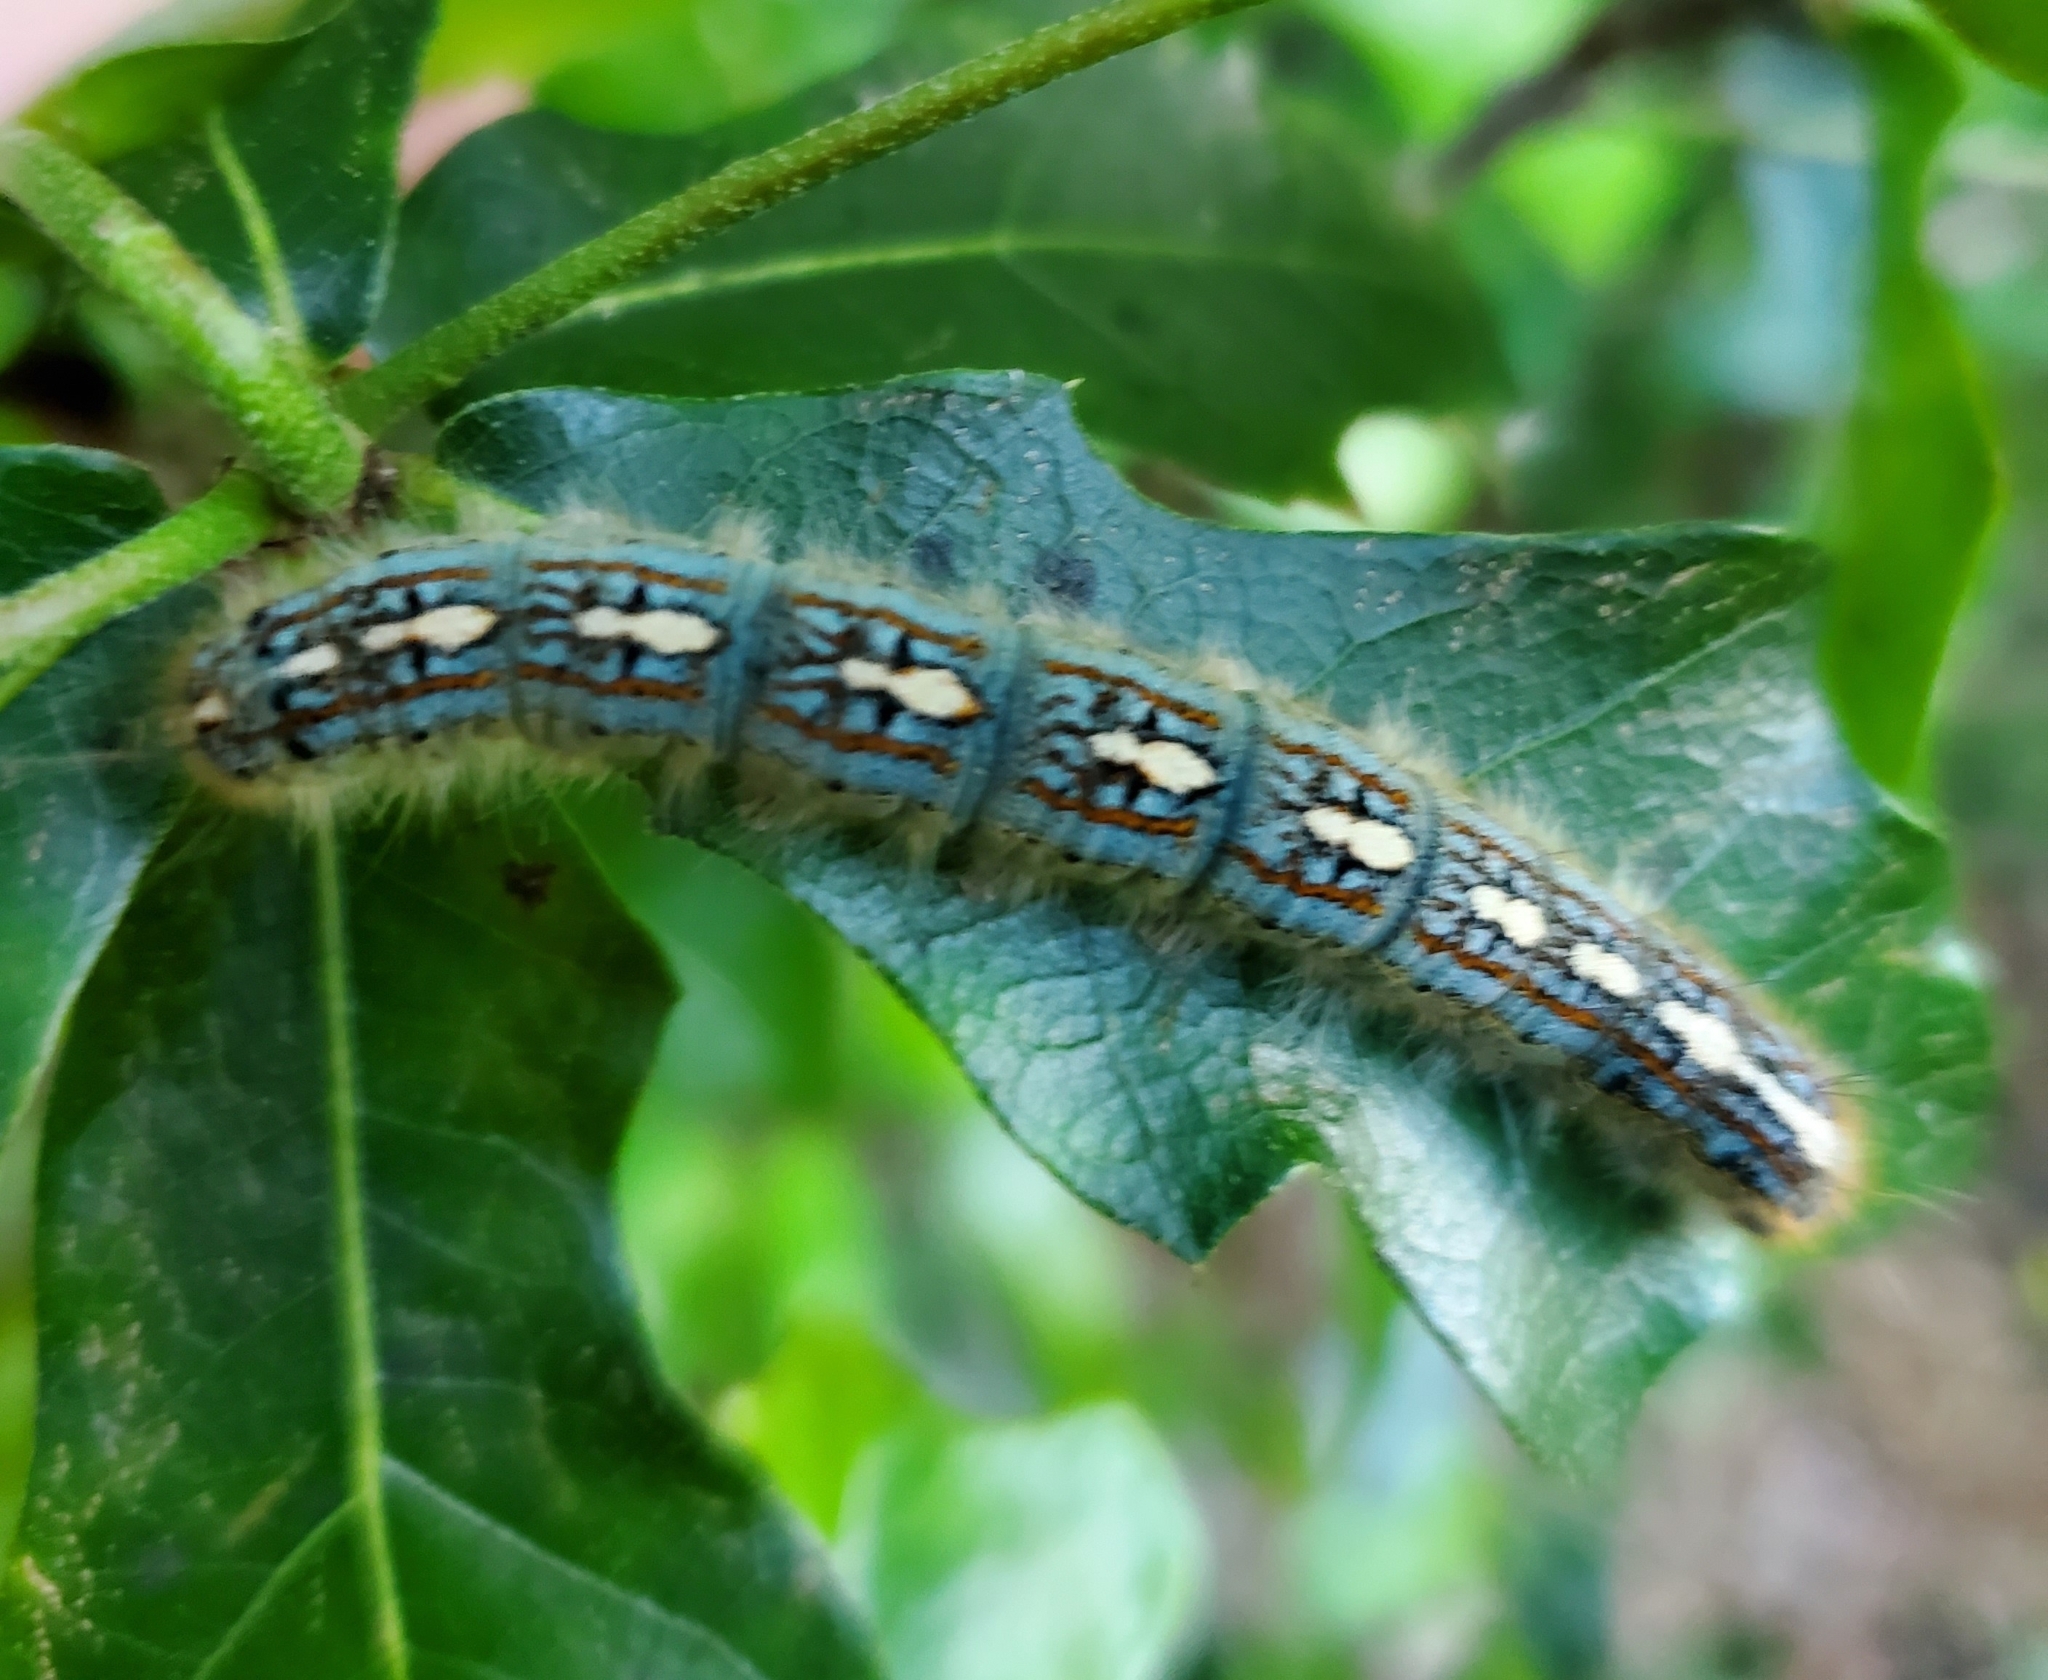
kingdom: Animalia
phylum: Arthropoda
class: Insecta
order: Lepidoptera
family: Lasiocampidae
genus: Malacosoma
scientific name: Malacosoma disstria
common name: Forest tent caterpillar
